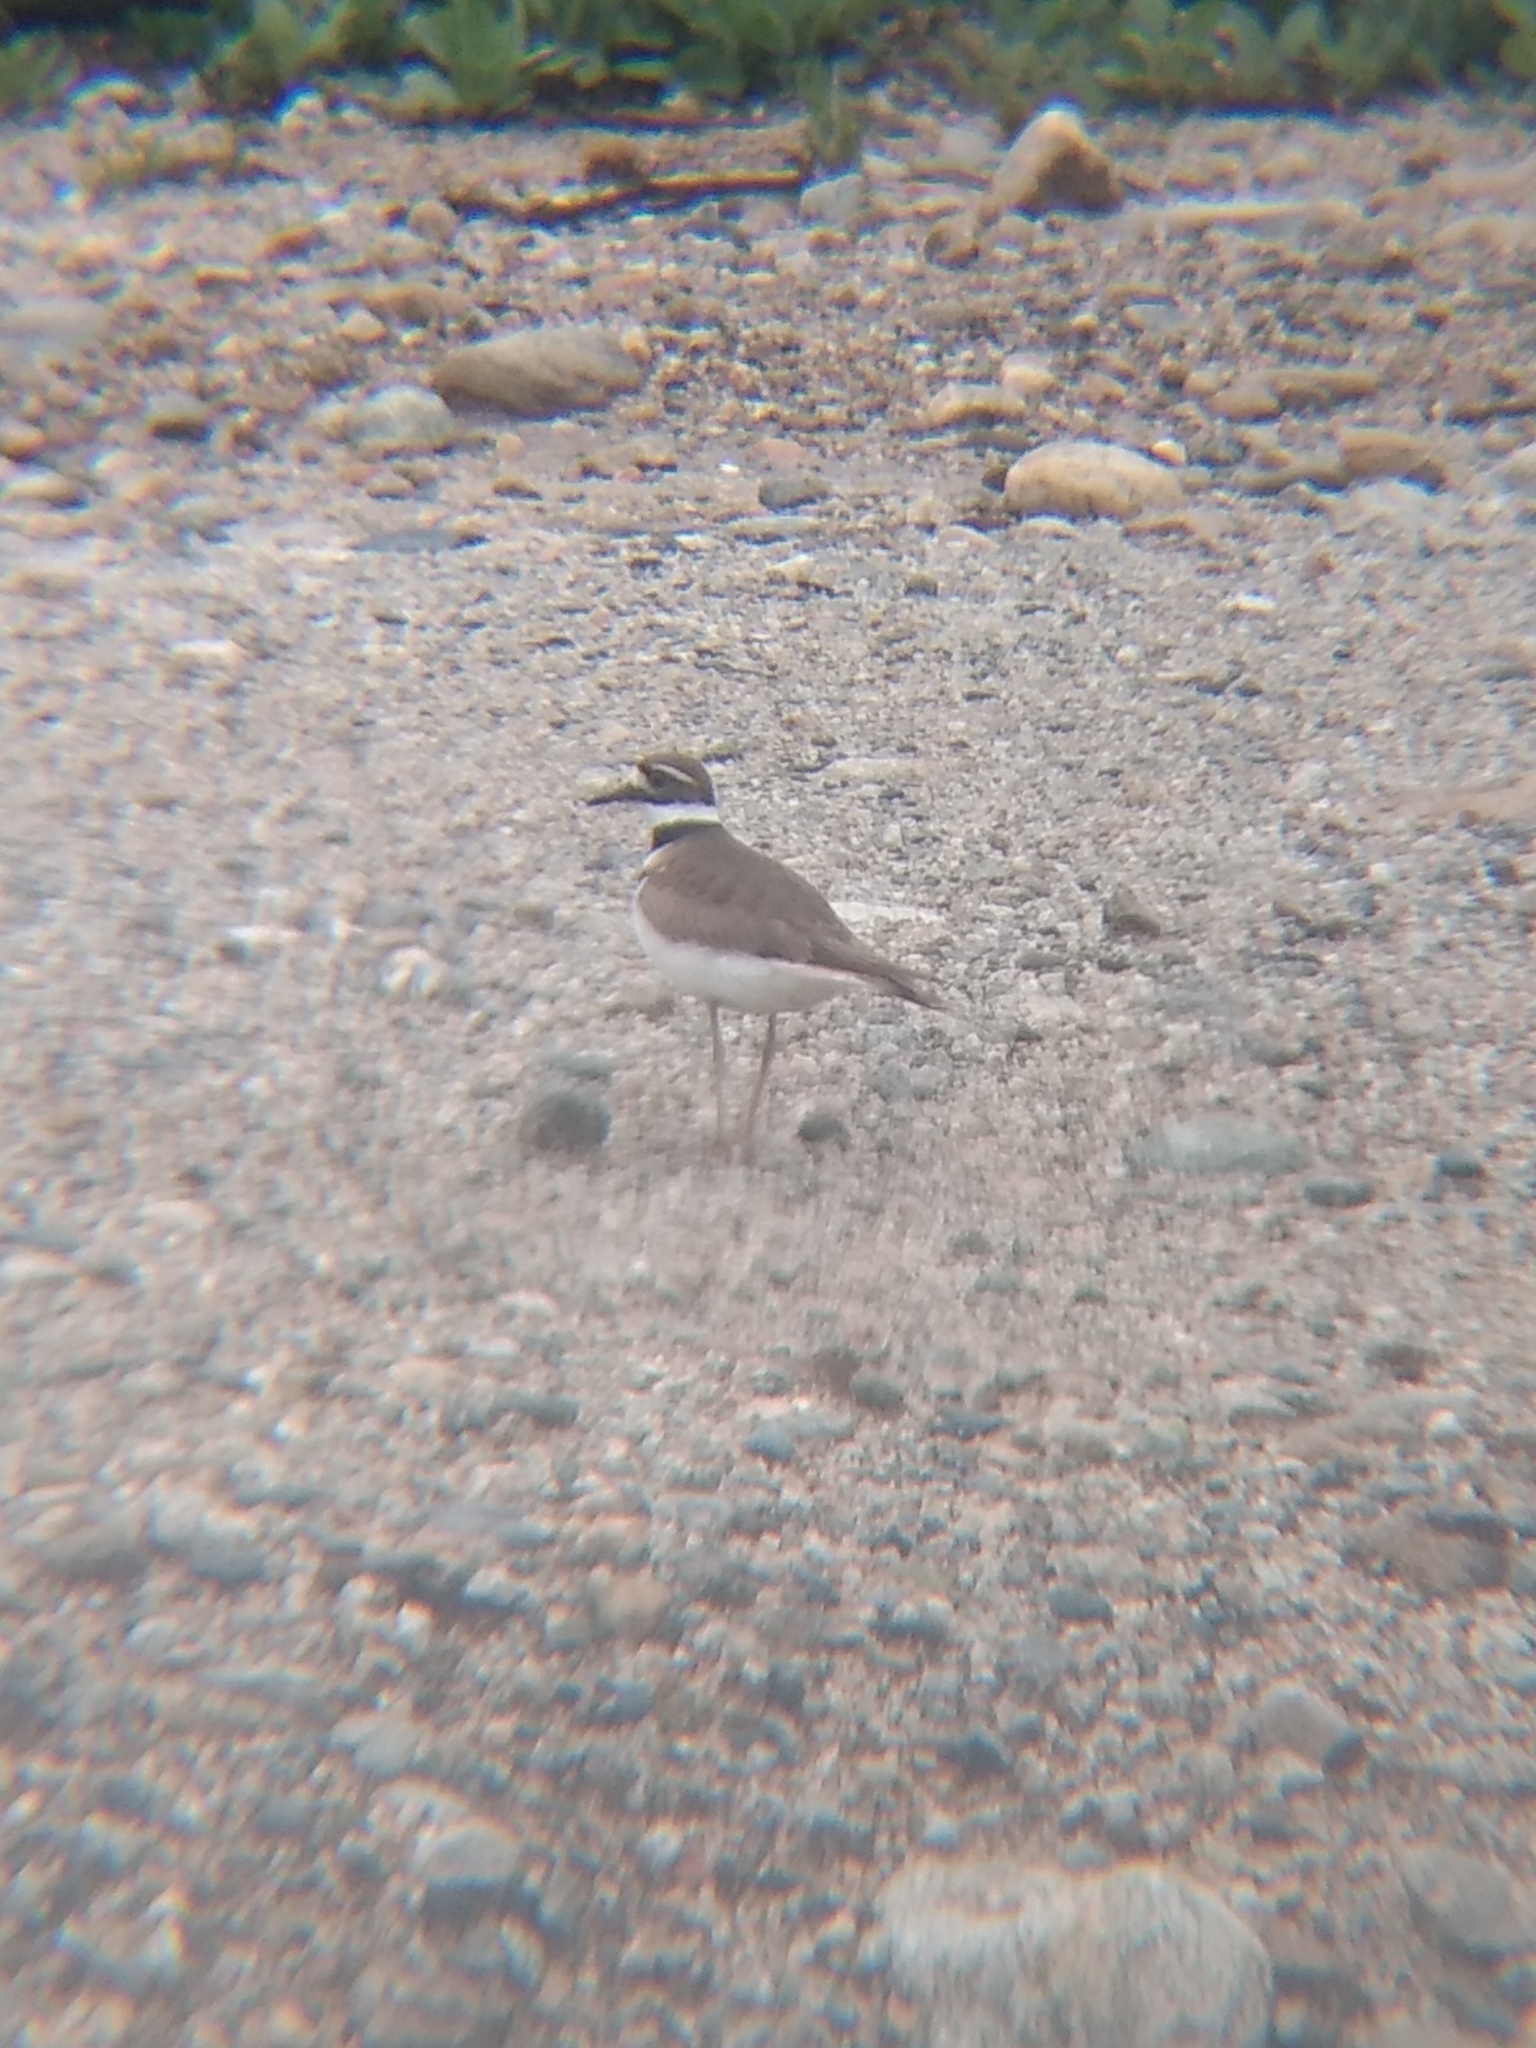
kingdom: Animalia
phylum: Chordata
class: Aves
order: Charadriiformes
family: Charadriidae
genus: Charadrius
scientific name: Charadrius vociferus
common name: Killdeer
